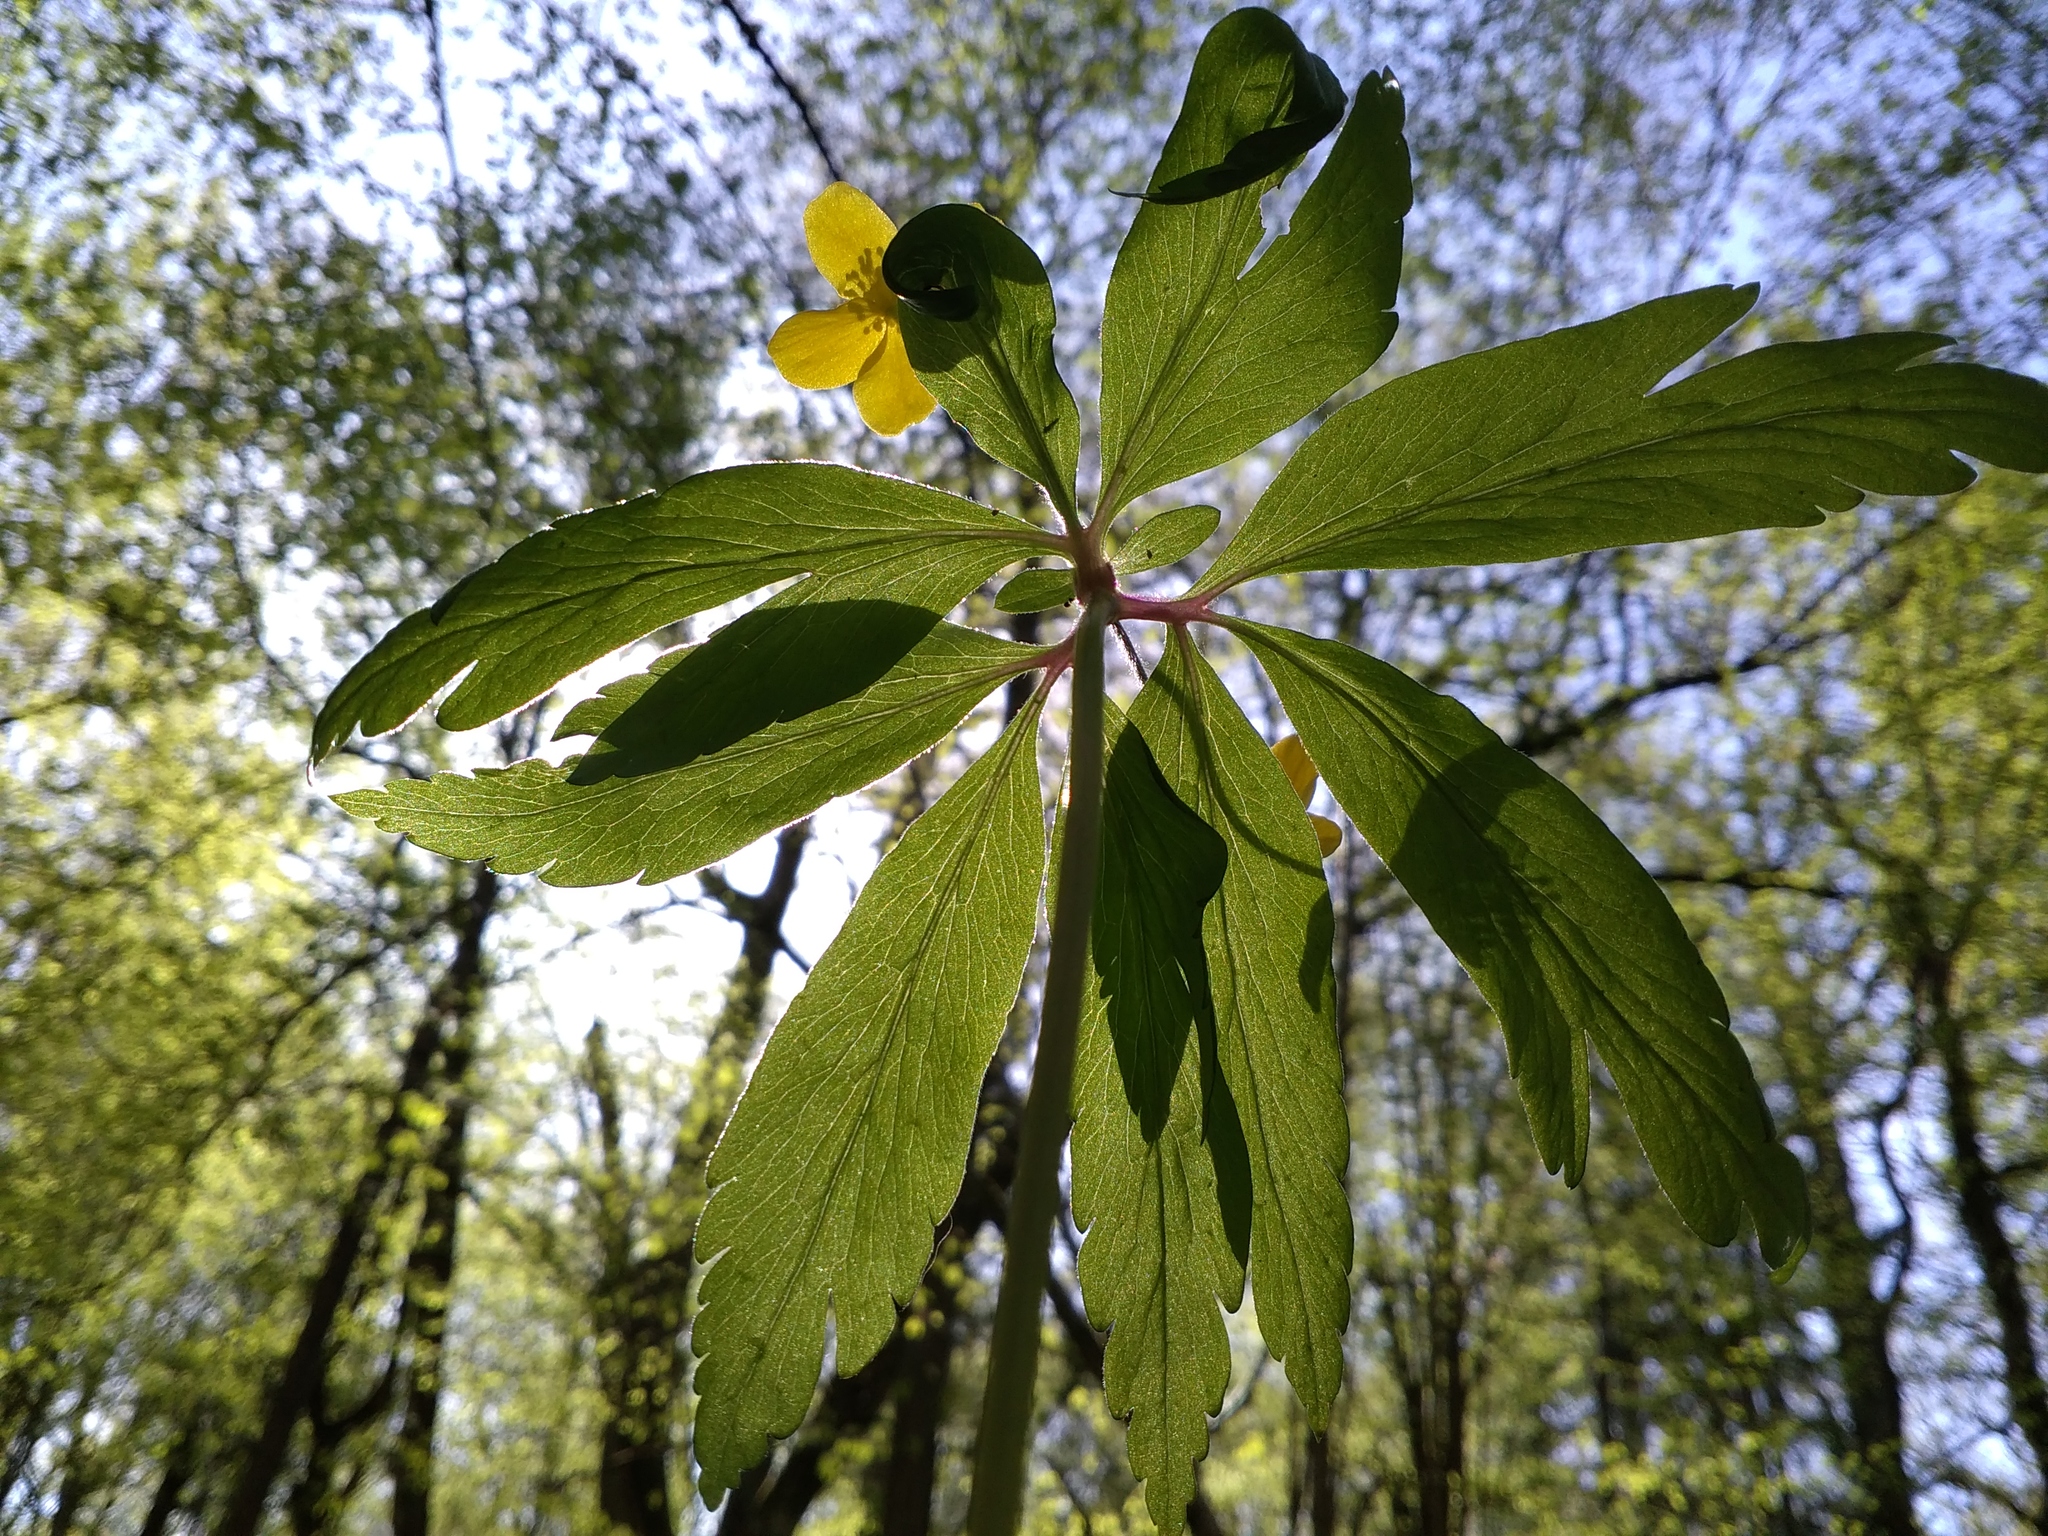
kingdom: Plantae
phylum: Tracheophyta
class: Magnoliopsida
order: Ranunculales
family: Ranunculaceae
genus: Anemone
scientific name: Anemone ranunculoides
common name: Yellow anemone
